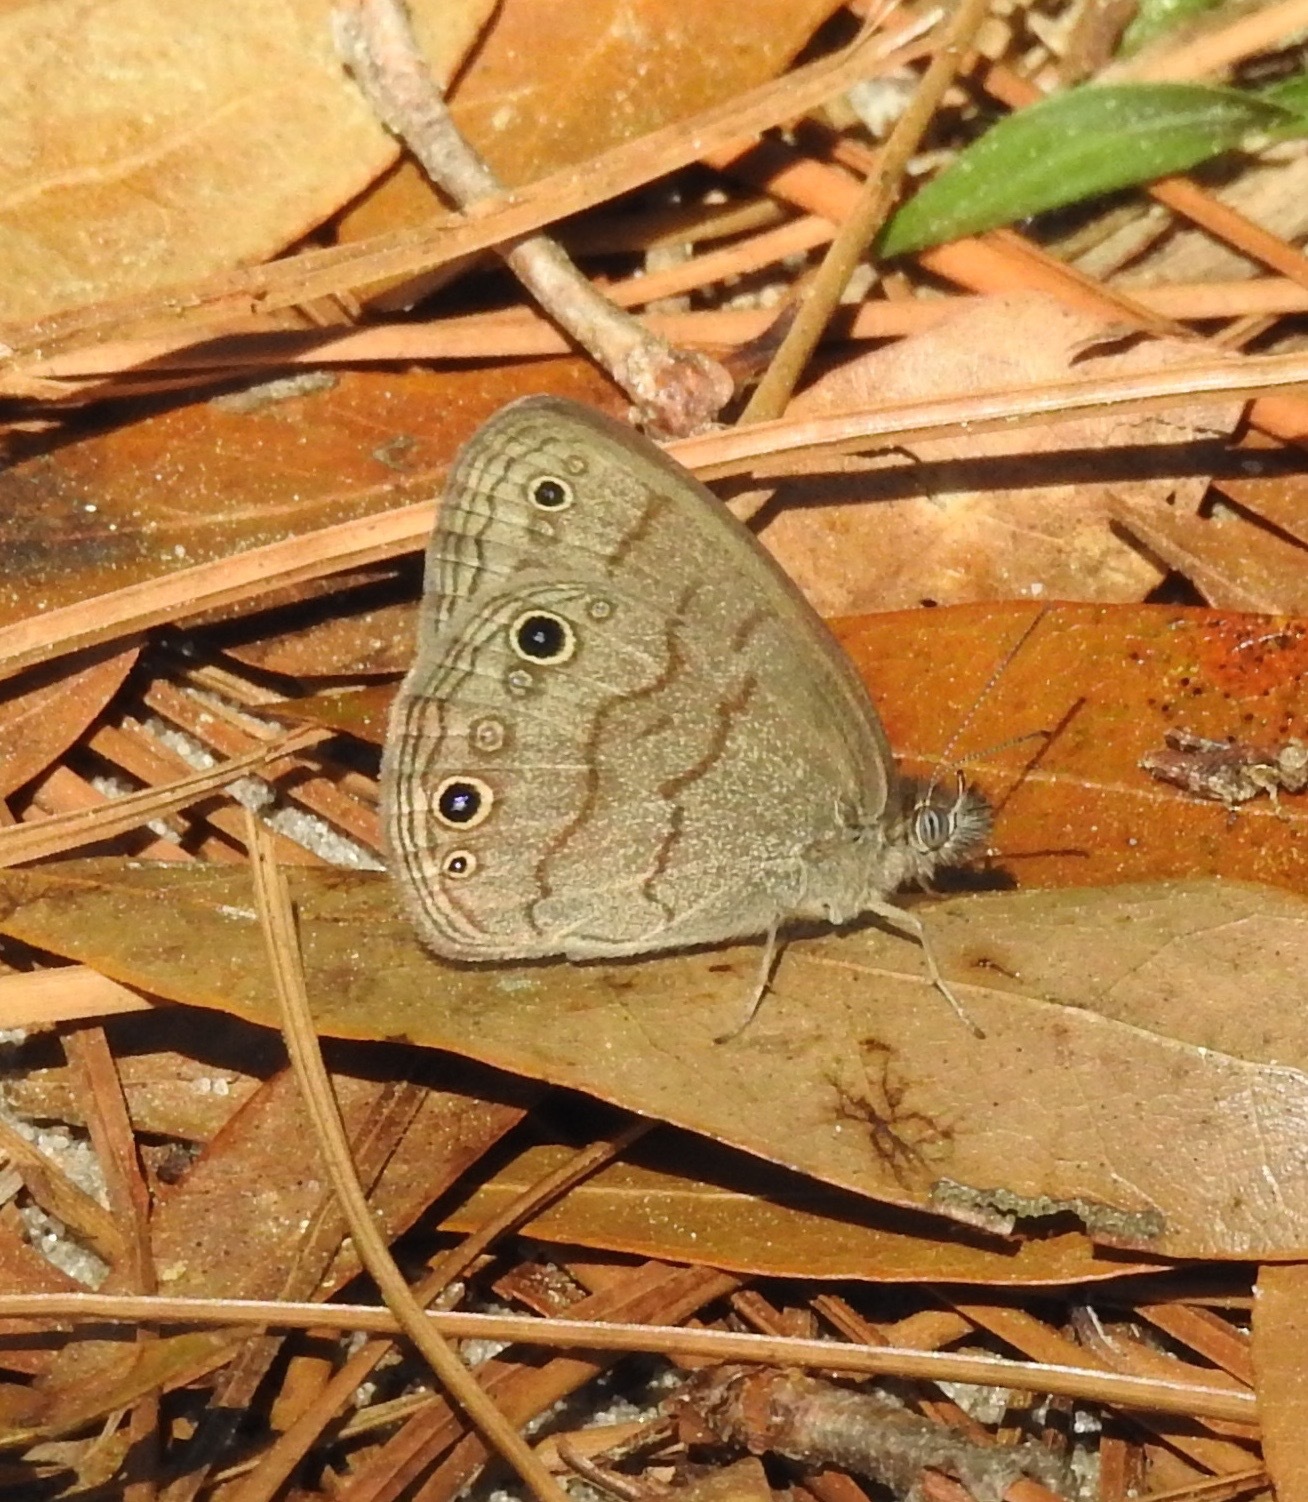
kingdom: Animalia
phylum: Arthropoda
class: Insecta
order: Lepidoptera
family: Nymphalidae
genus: Hermeuptychia
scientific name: Hermeuptychia hermes
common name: Hermes satyr
